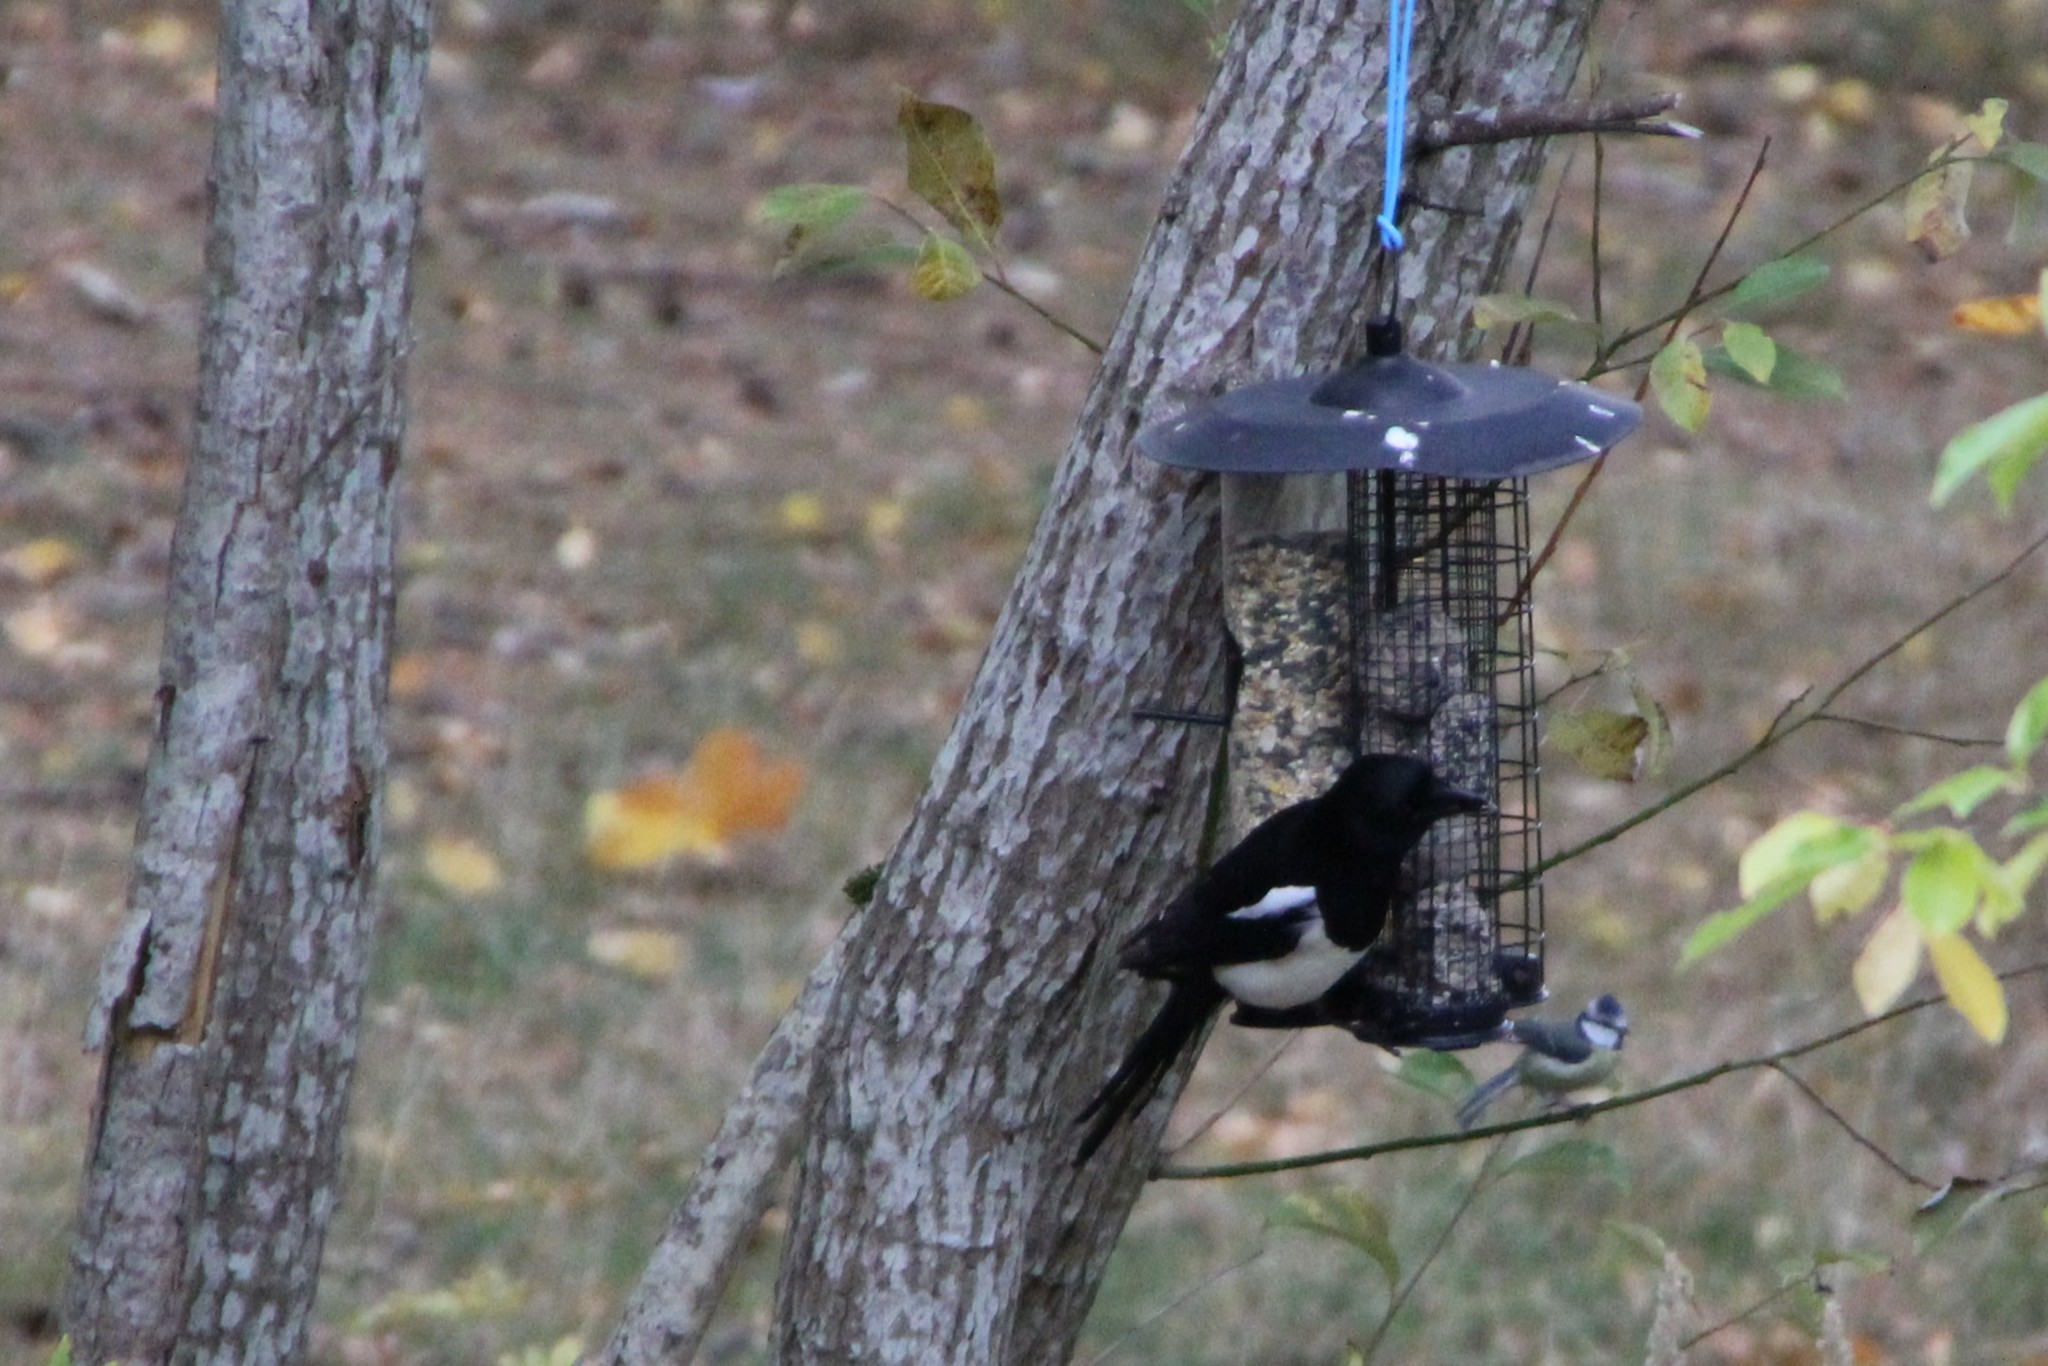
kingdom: Animalia
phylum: Chordata
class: Aves
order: Passeriformes
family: Corvidae
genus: Pica
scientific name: Pica pica
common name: Eurasian magpie
